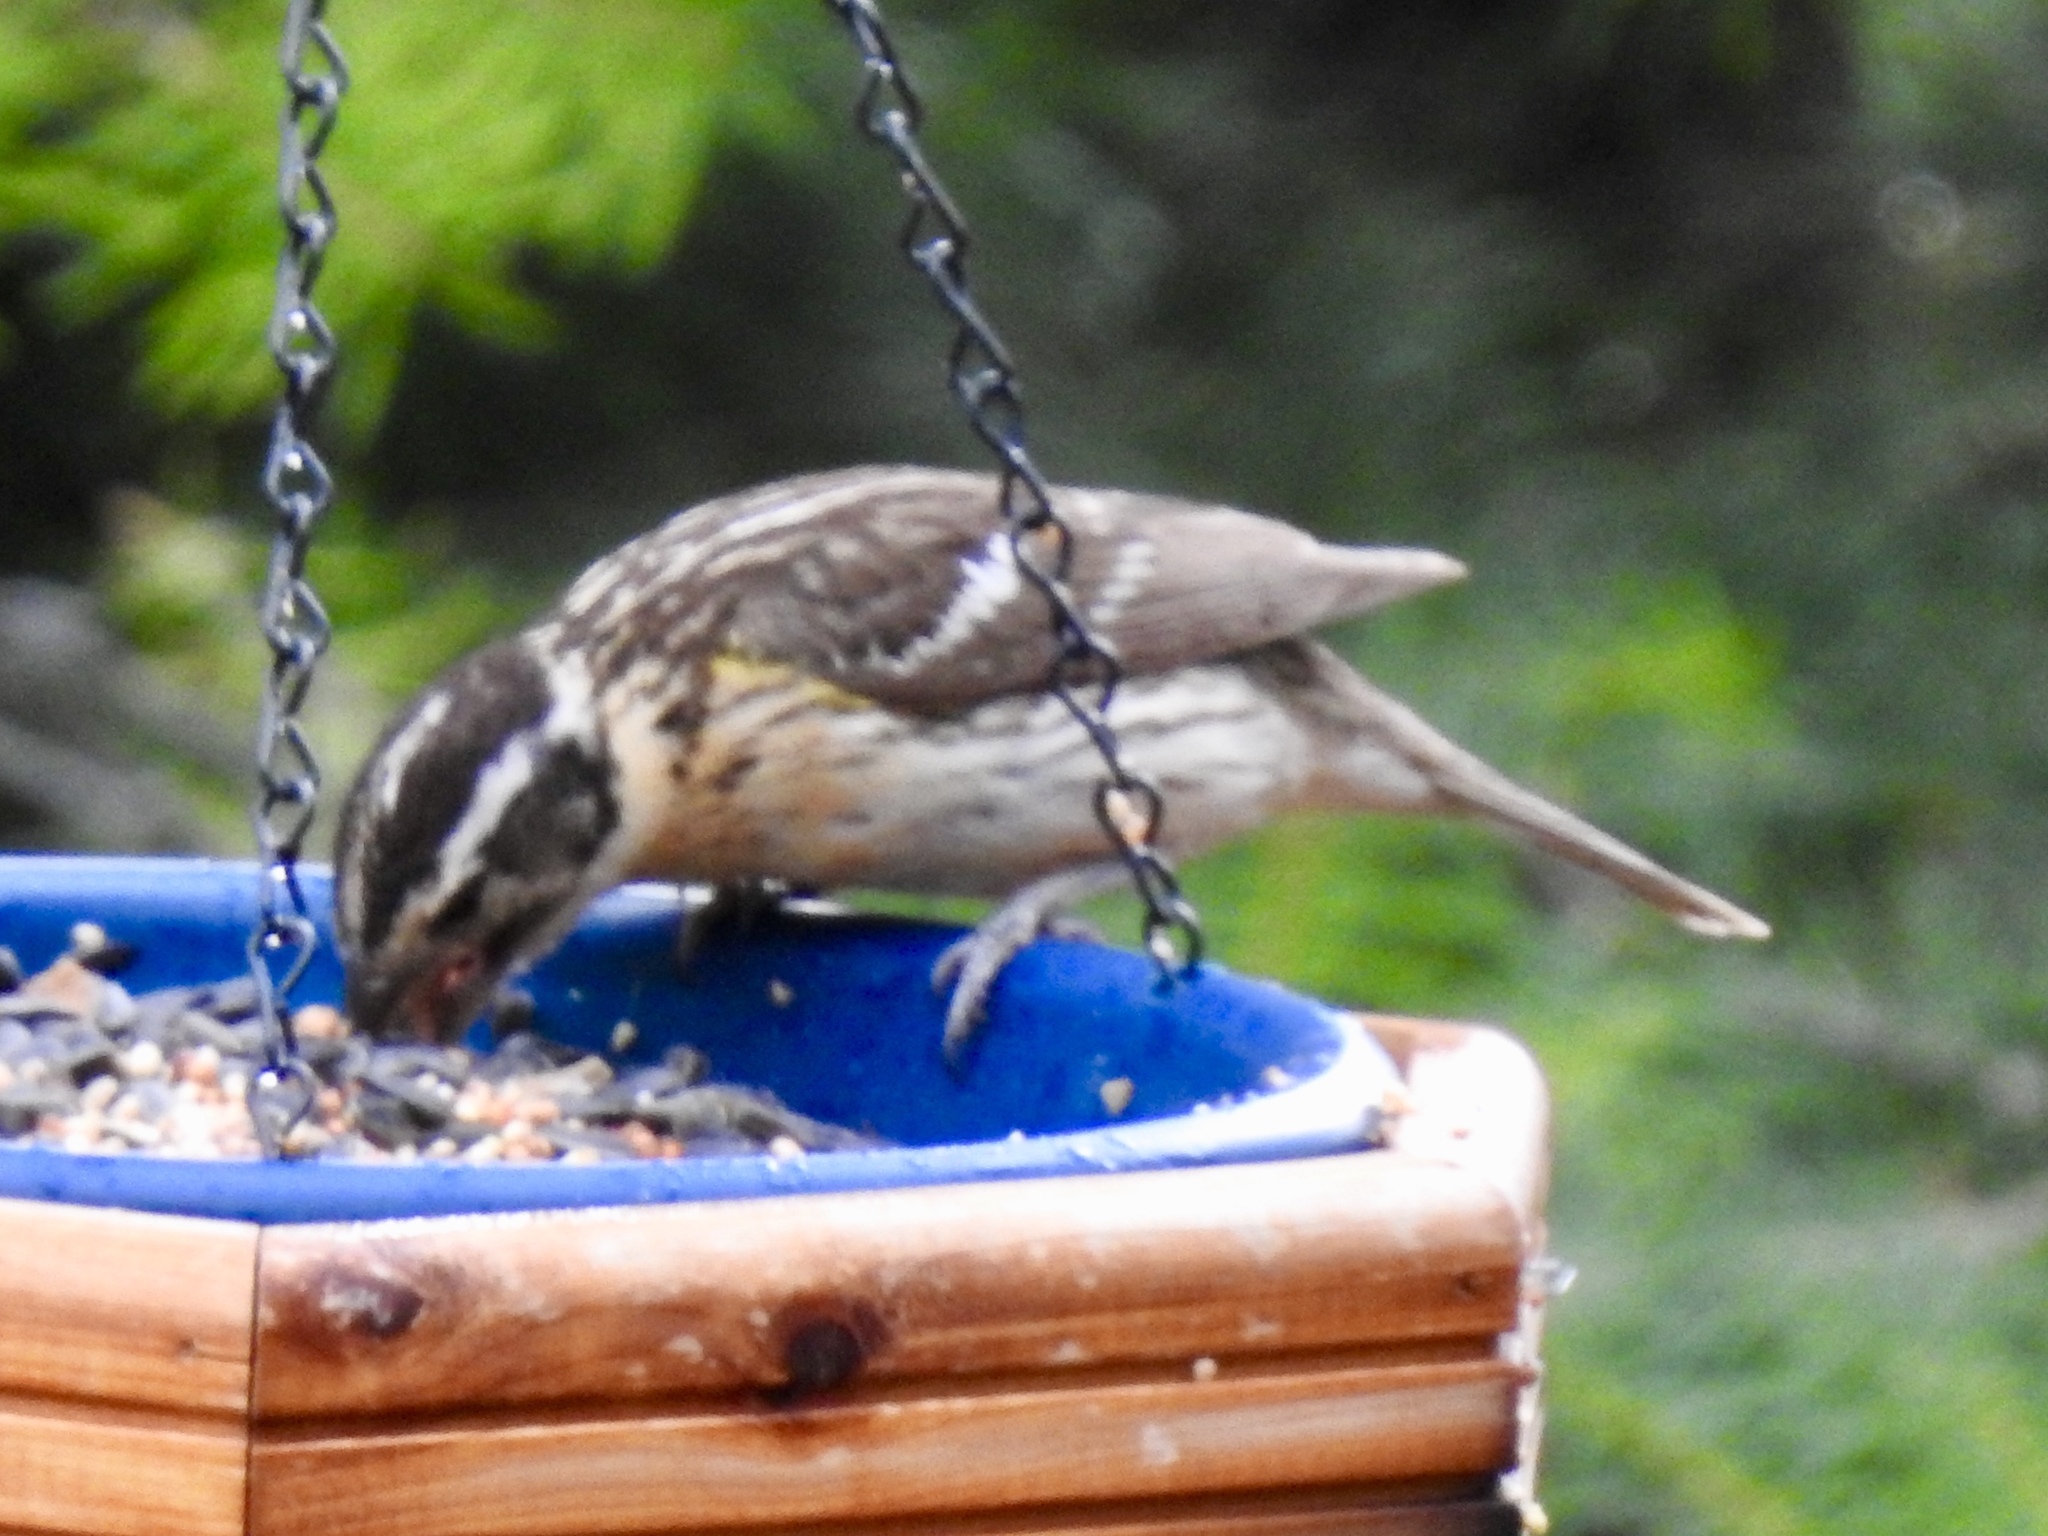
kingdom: Animalia
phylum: Chordata
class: Aves
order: Passeriformes
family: Cardinalidae
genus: Pheucticus
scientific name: Pheucticus melanocephalus
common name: Black-headed grosbeak
